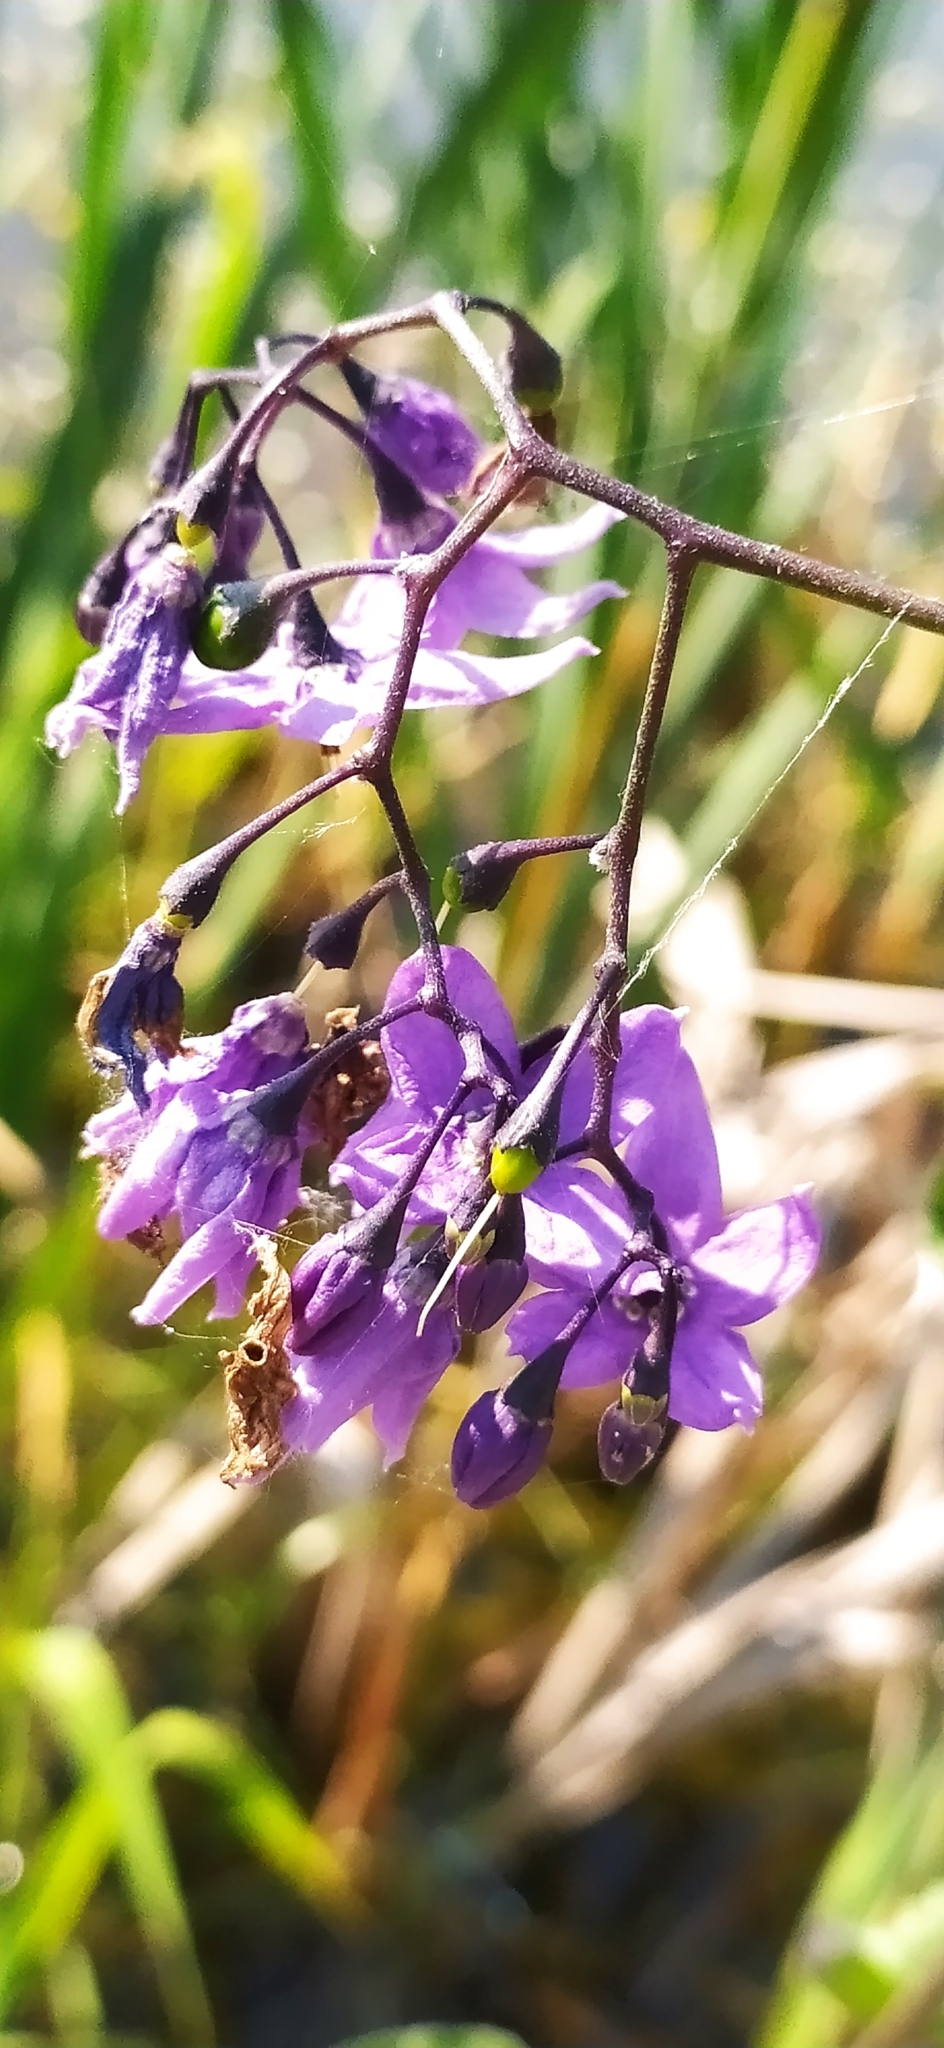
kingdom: Plantae
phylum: Tracheophyta
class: Magnoliopsida
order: Solanales
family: Solanaceae
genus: Solanum
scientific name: Solanum dulcamara
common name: Climbing nightshade
